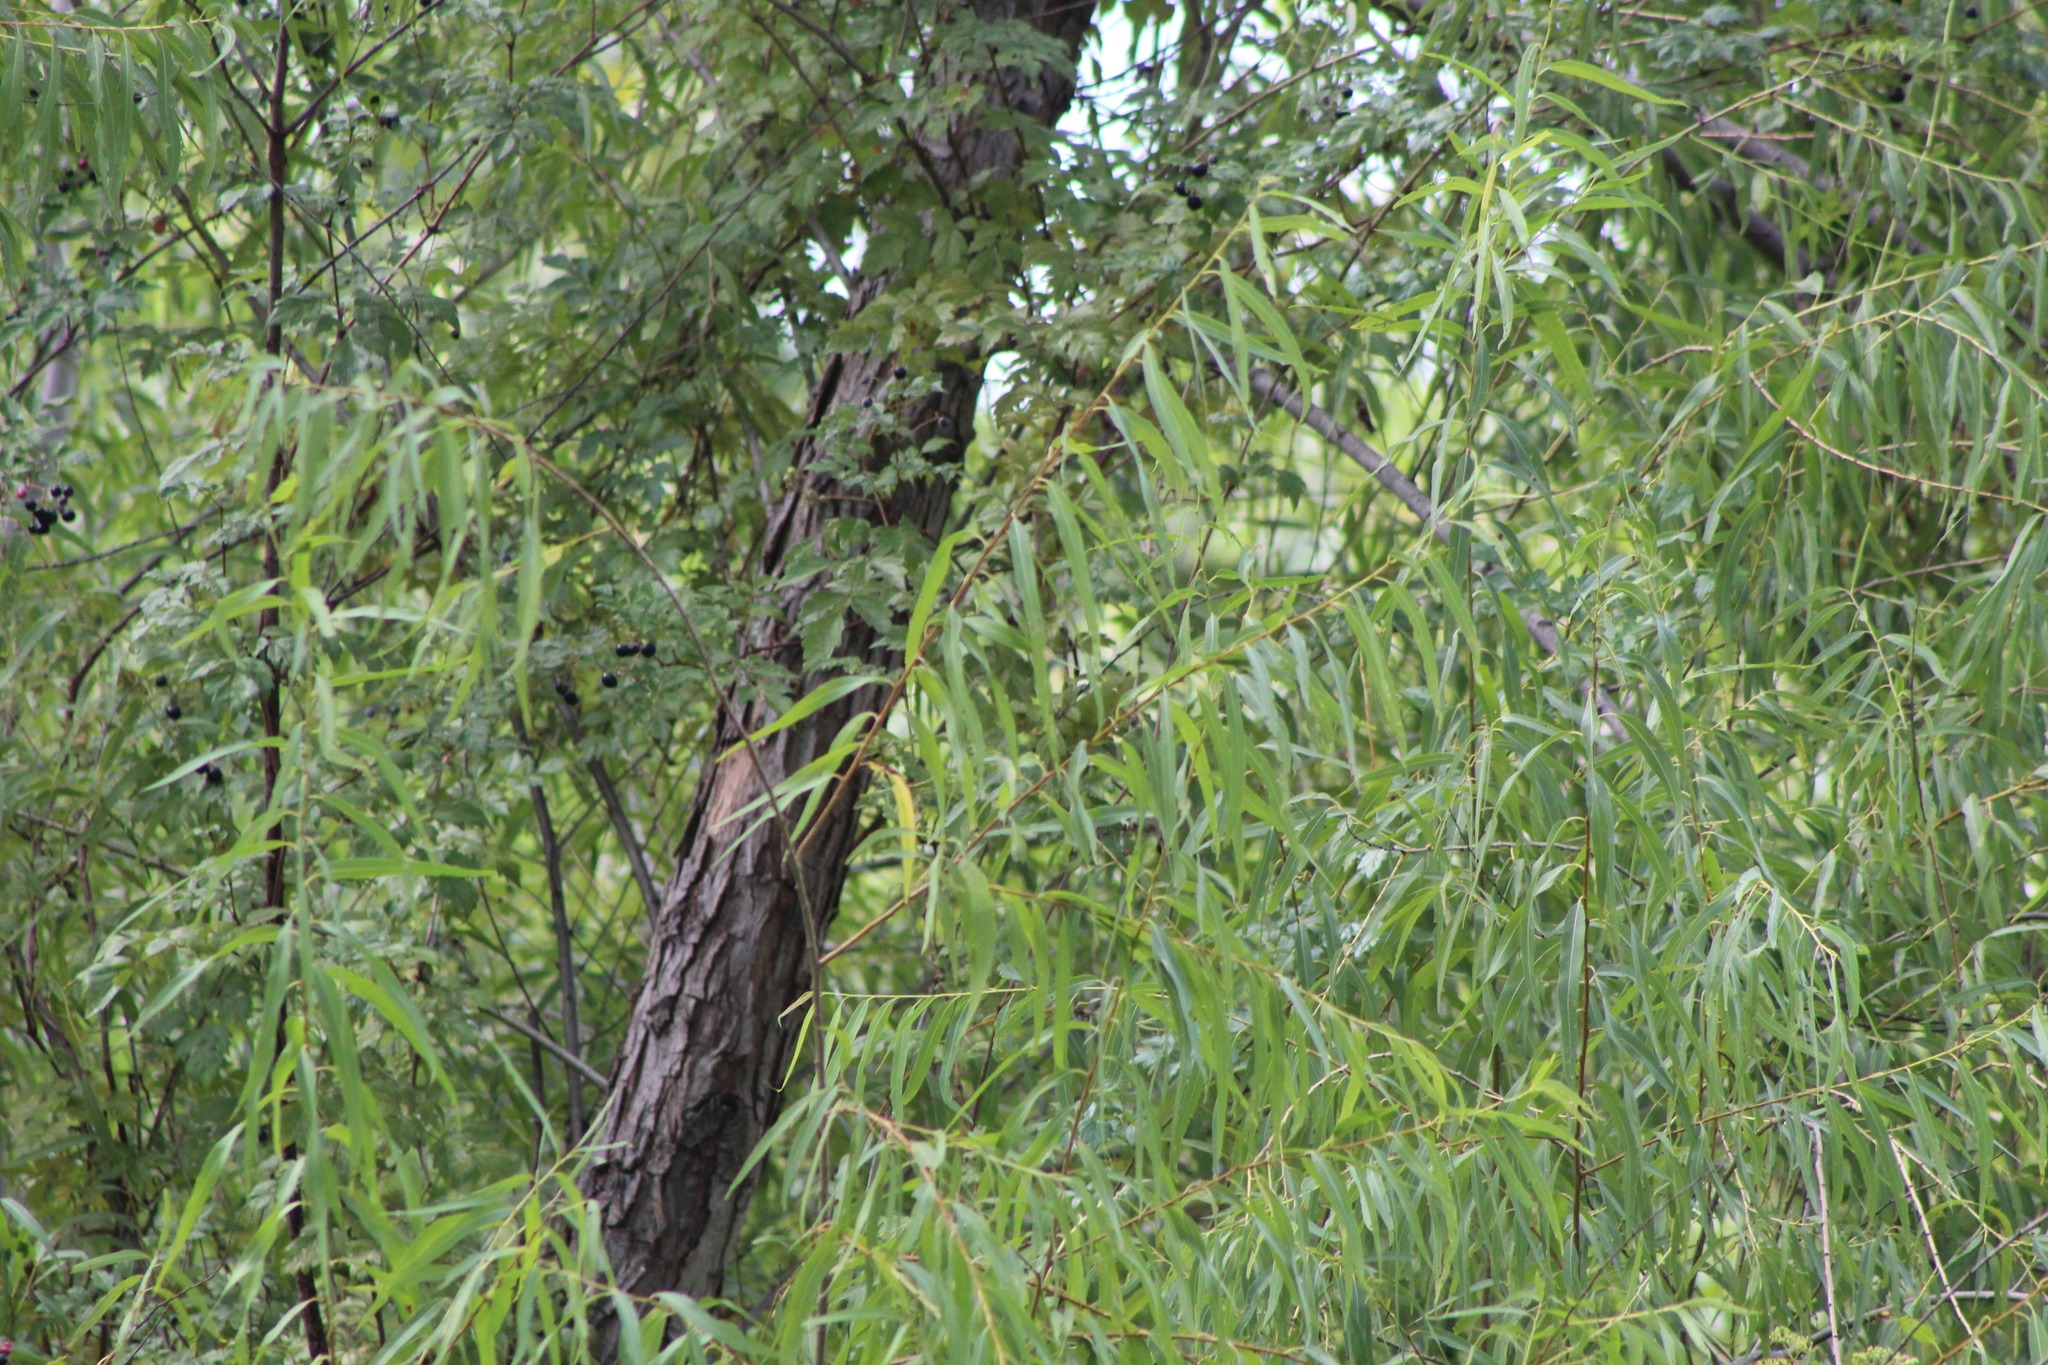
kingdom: Plantae
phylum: Tracheophyta
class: Magnoliopsida
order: Malpighiales
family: Salicaceae
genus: Salix
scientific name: Salix nigra
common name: Black willow
